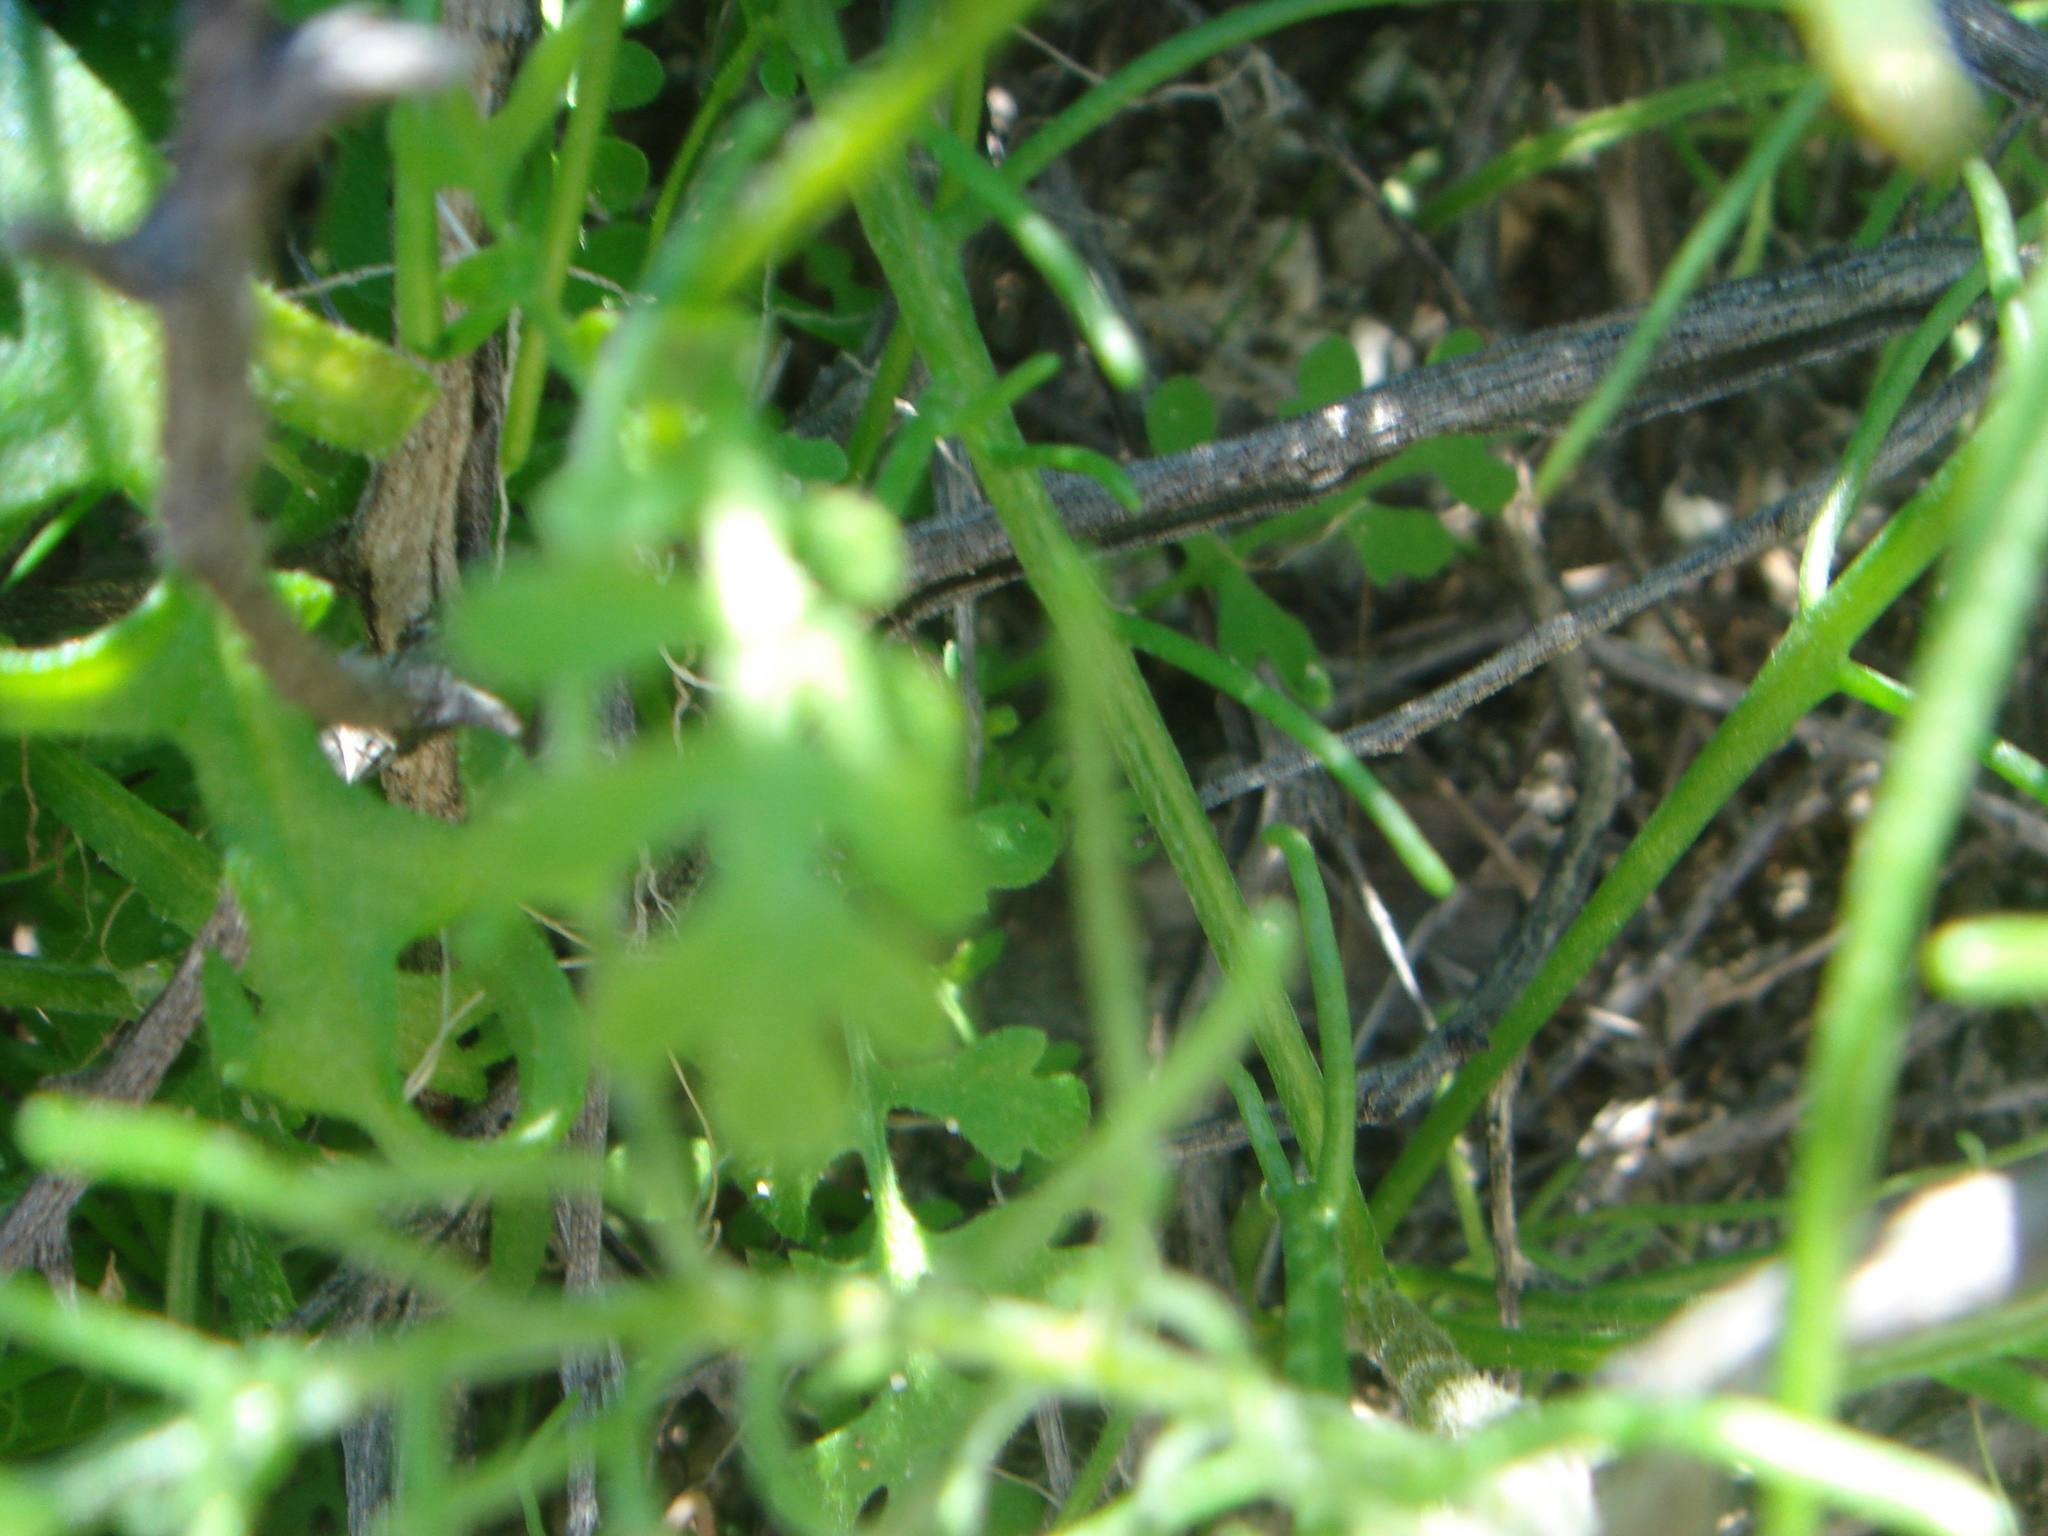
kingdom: Plantae
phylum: Tracheophyta
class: Magnoliopsida
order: Boraginales
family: Hydrophyllaceae
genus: Eucrypta
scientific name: Eucrypta micrantha
